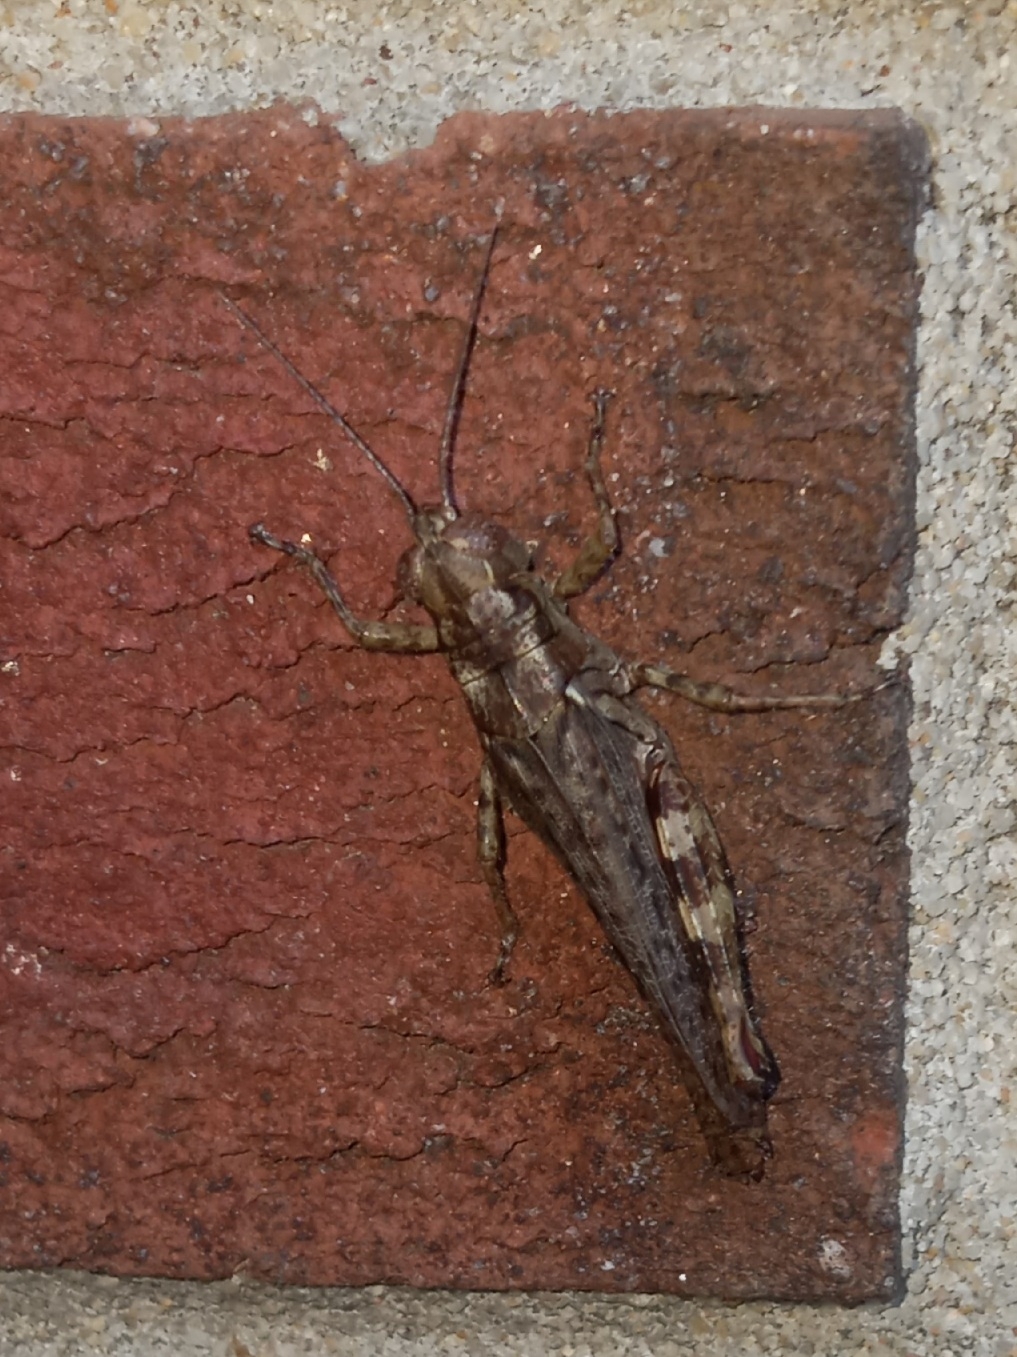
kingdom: Animalia
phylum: Arthropoda
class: Insecta
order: Orthoptera
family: Acrididae
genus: Melanoplus
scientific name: Melanoplus punctulatus
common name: Pine-tree spur-throat grasshopper
